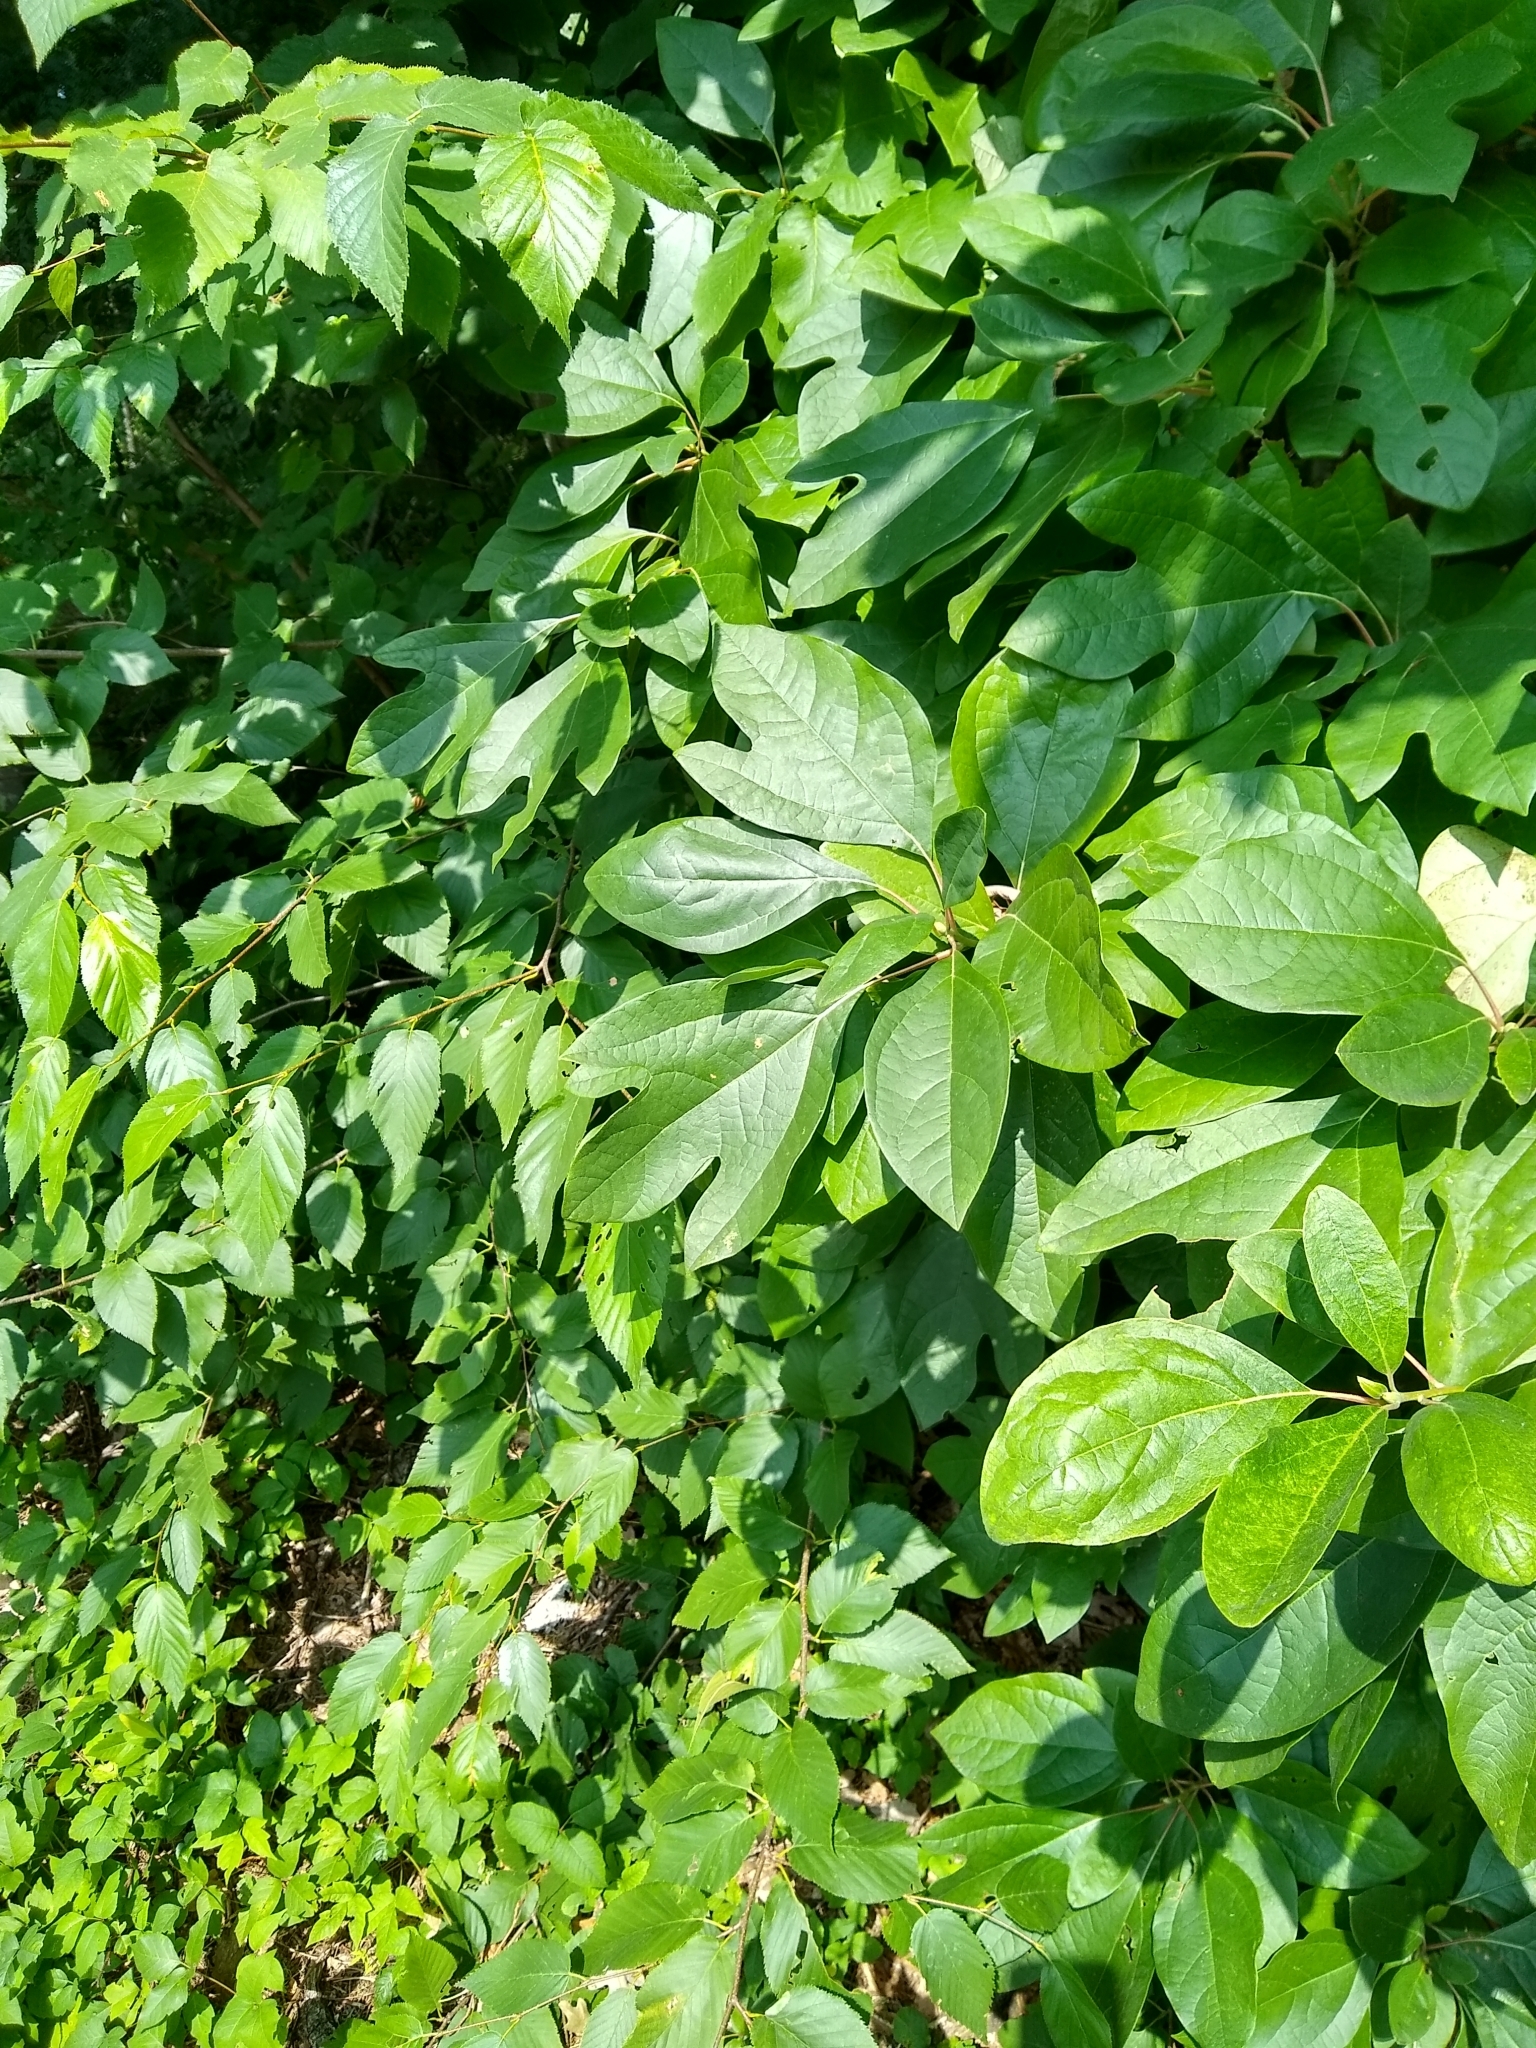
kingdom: Plantae
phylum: Tracheophyta
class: Magnoliopsida
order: Laurales
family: Lauraceae
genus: Sassafras
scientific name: Sassafras albidum
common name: Sassafras
